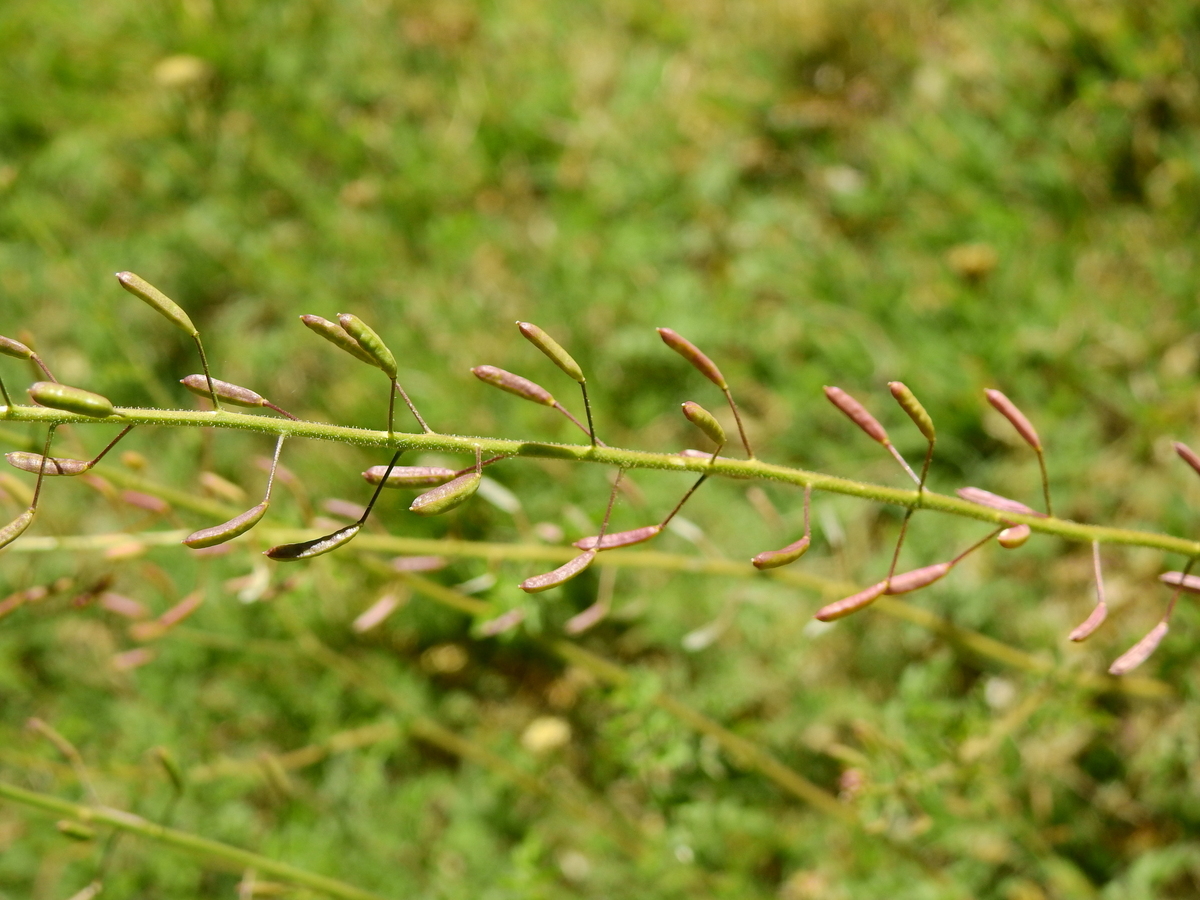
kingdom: Plantae
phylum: Tracheophyta
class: Magnoliopsida
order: Brassicales
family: Brassicaceae
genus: Descurainia
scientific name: Descurainia erodiifolia
